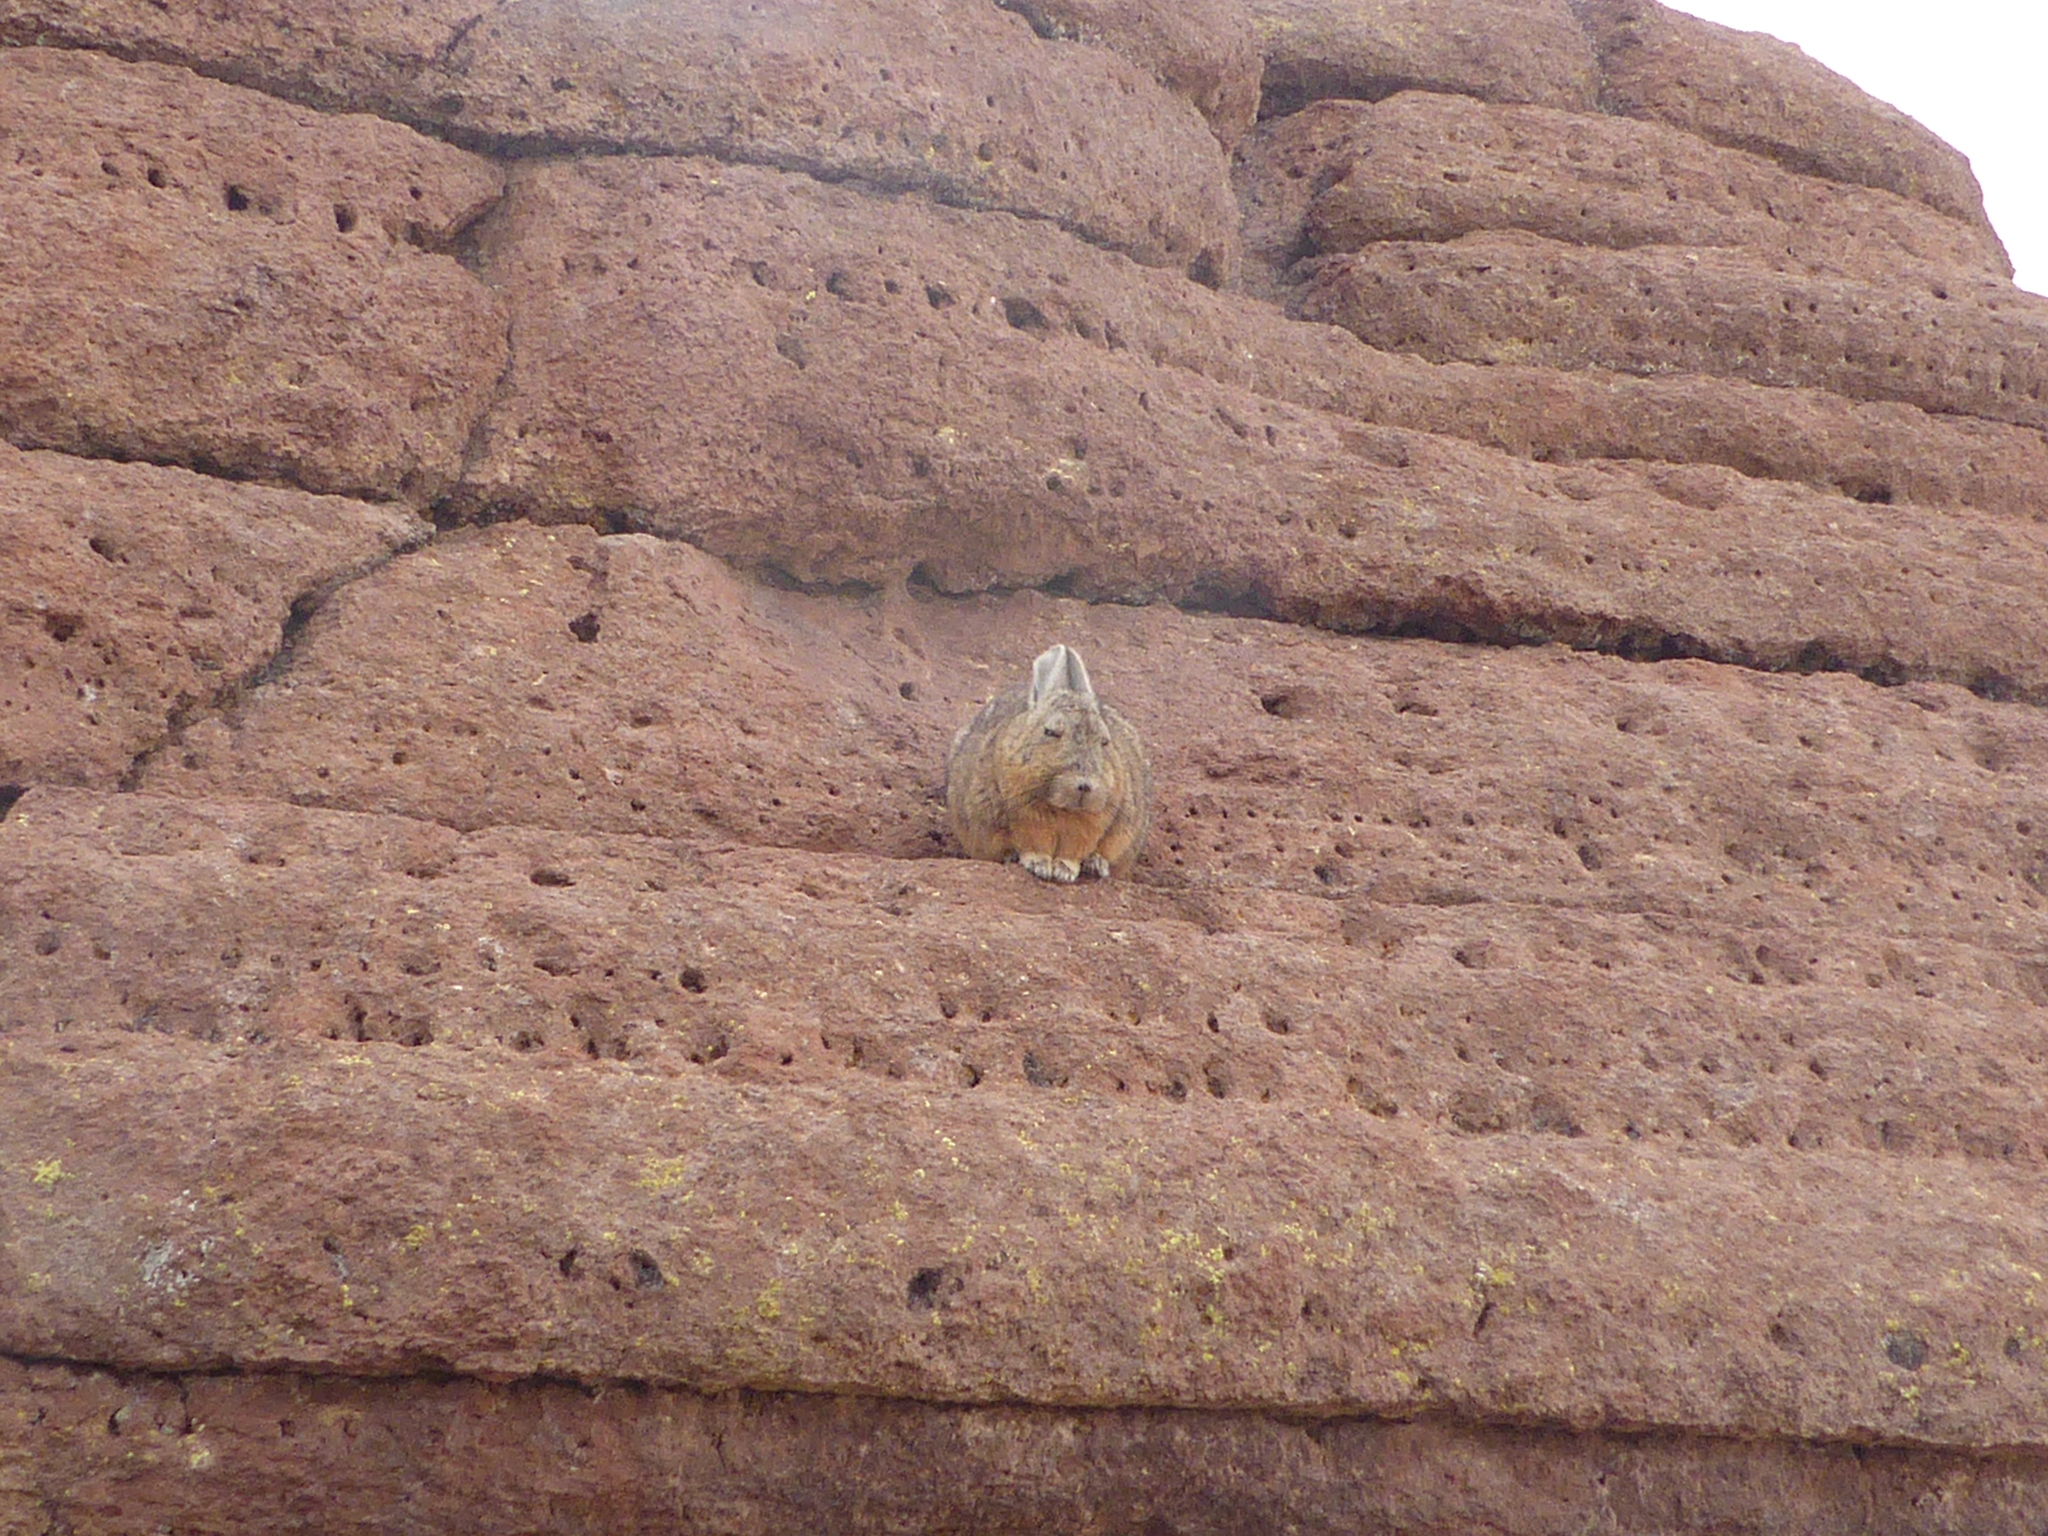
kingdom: Animalia
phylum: Chordata
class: Mammalia
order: Rodentia
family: Chinchillidae
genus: Lagidium
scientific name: Lagidium viscacia
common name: Southern viscacha
